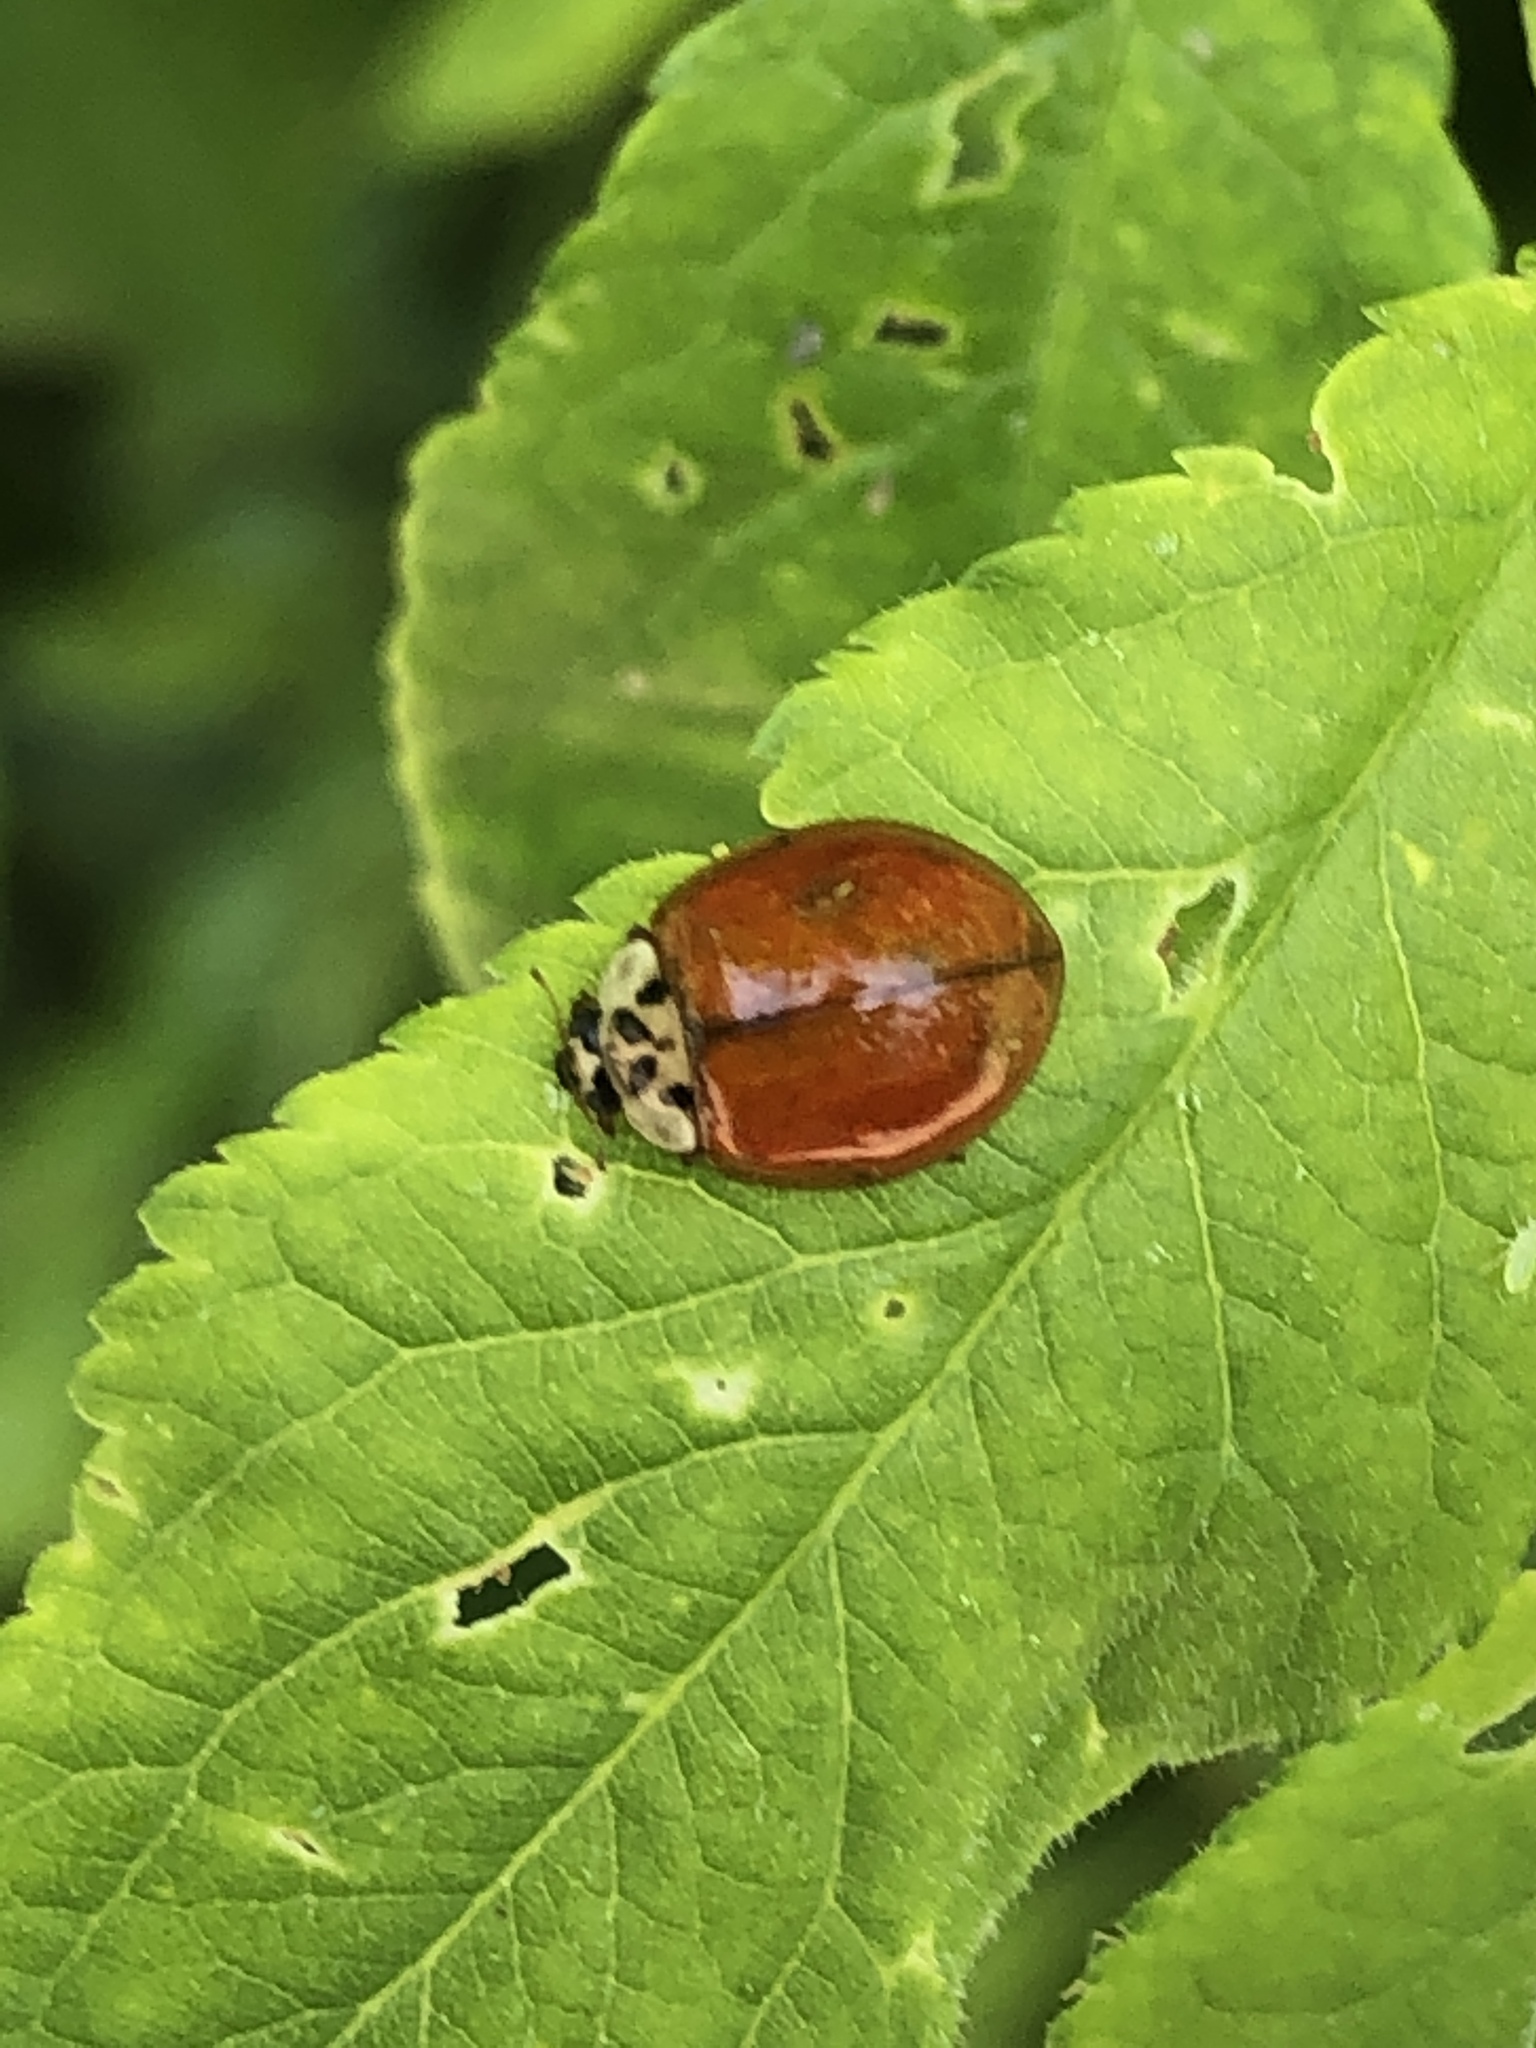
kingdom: Animalia
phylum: Arthropoda
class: Insecta
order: Coleoptera
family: Coccinellidae
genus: Harmonia
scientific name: Harmonia axyridis
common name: Harlequin ladybird
